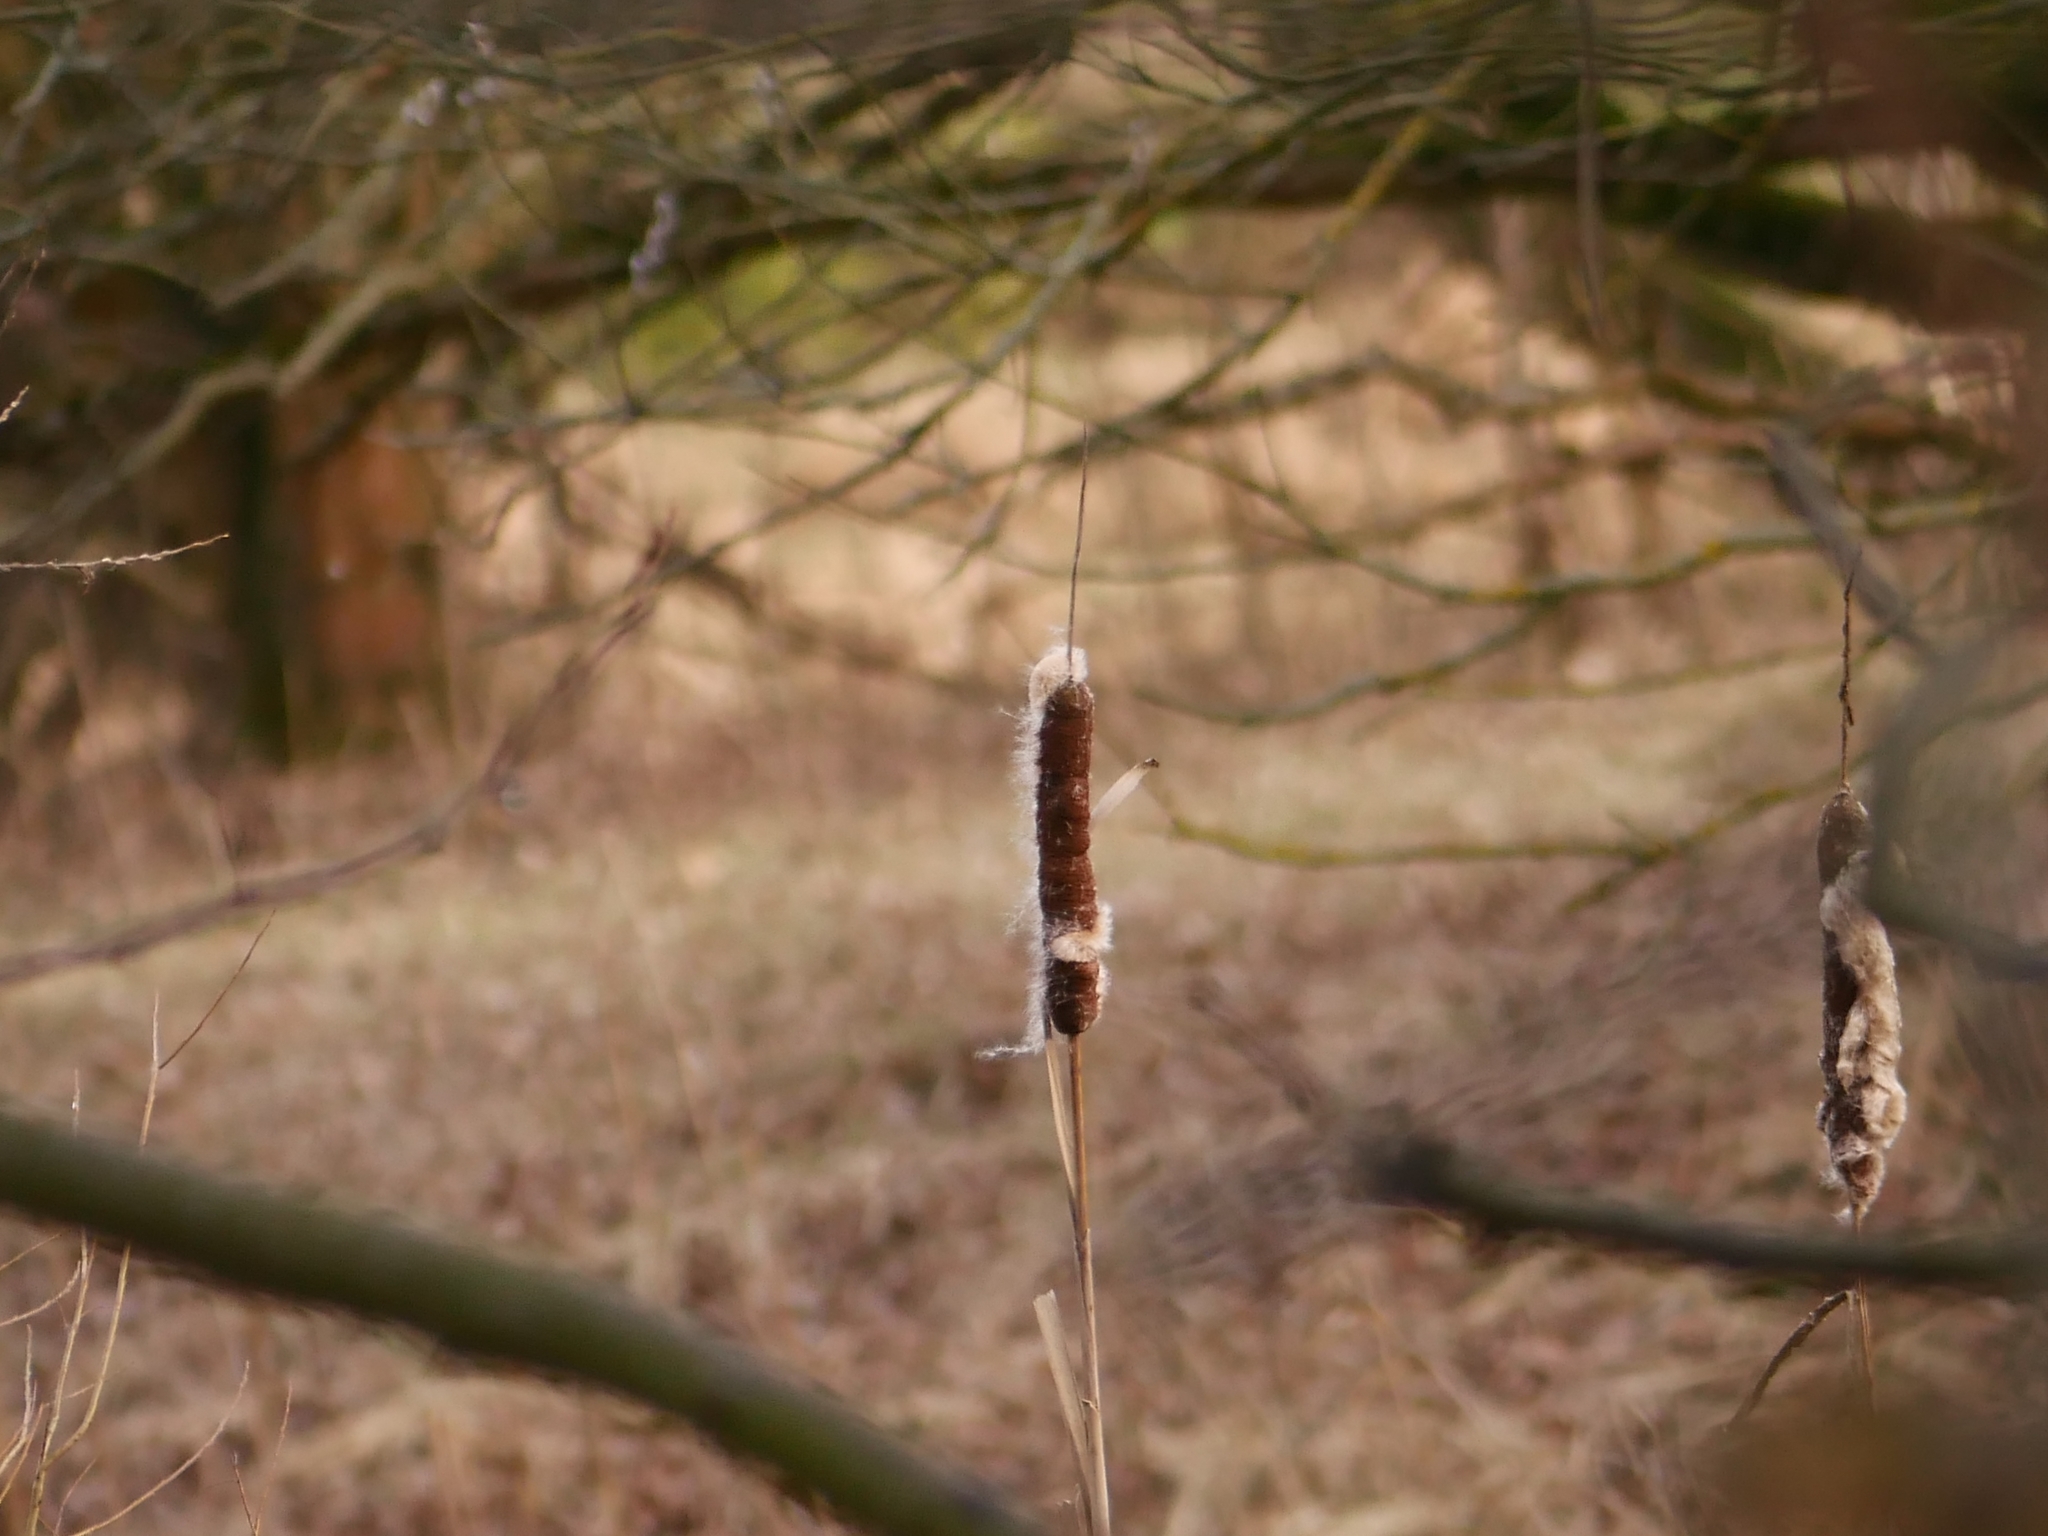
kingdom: Plantae
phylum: Tracheophyta
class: Liliopsida
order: Poales
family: Typhaceae
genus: Typha
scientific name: Typha angustifolia
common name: Lesser bulrush
